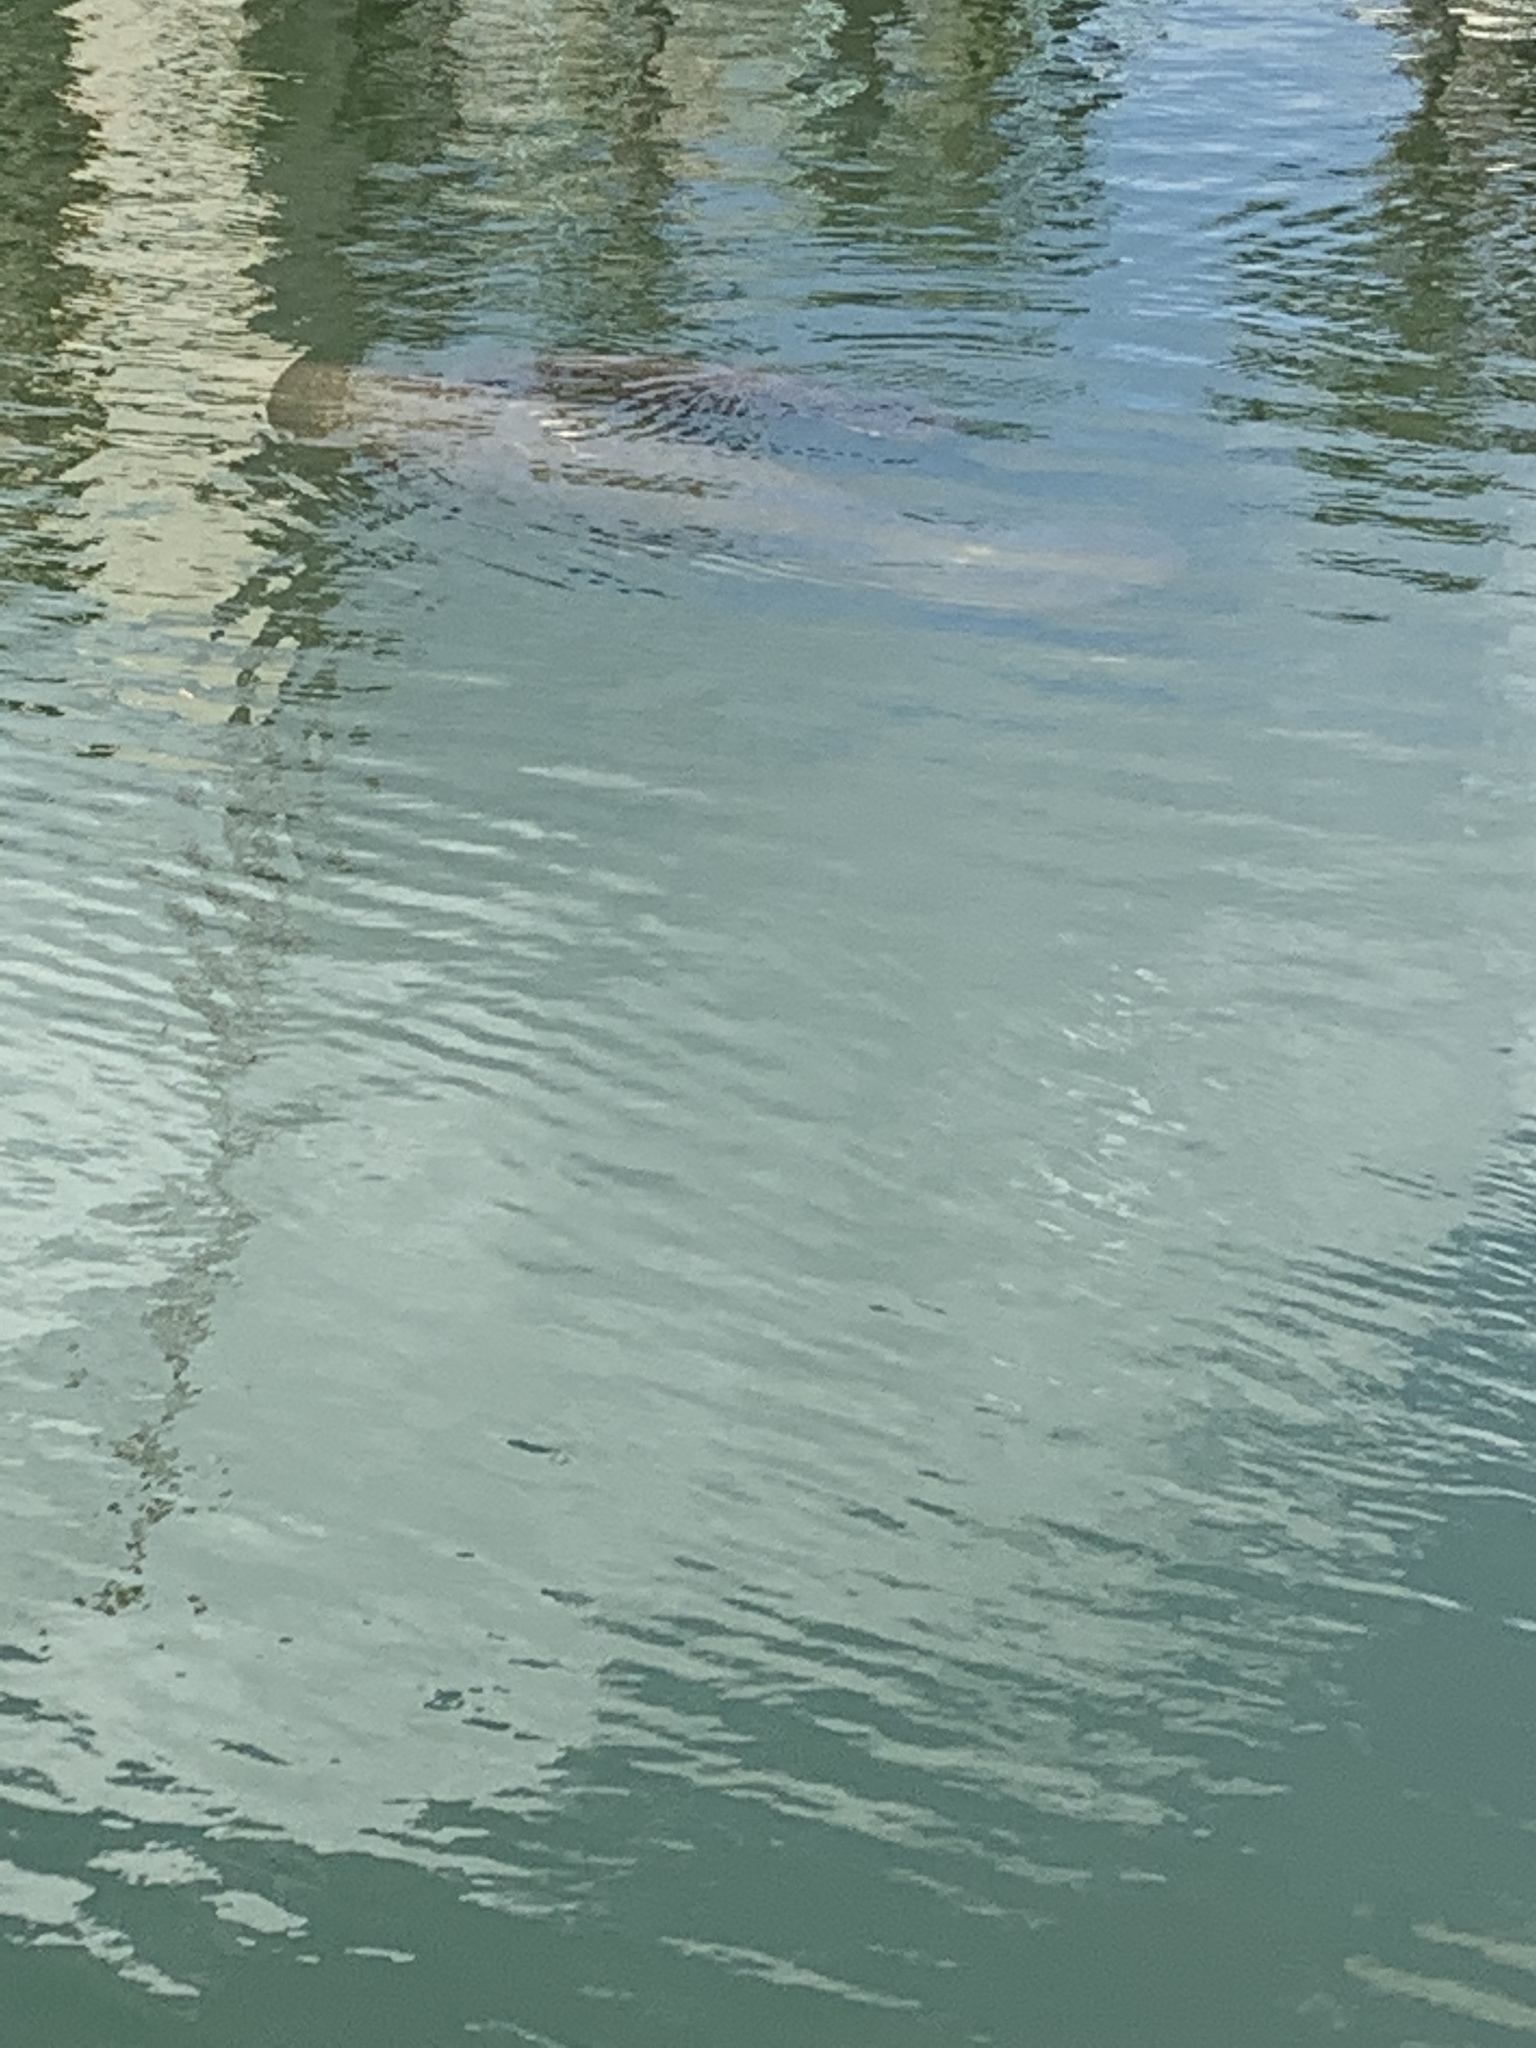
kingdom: Animalia
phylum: Chordata
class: Mammalia
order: Sirenia
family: Trichechidae
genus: Trichechus
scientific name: Trichechus manatus
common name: West indian manatee
